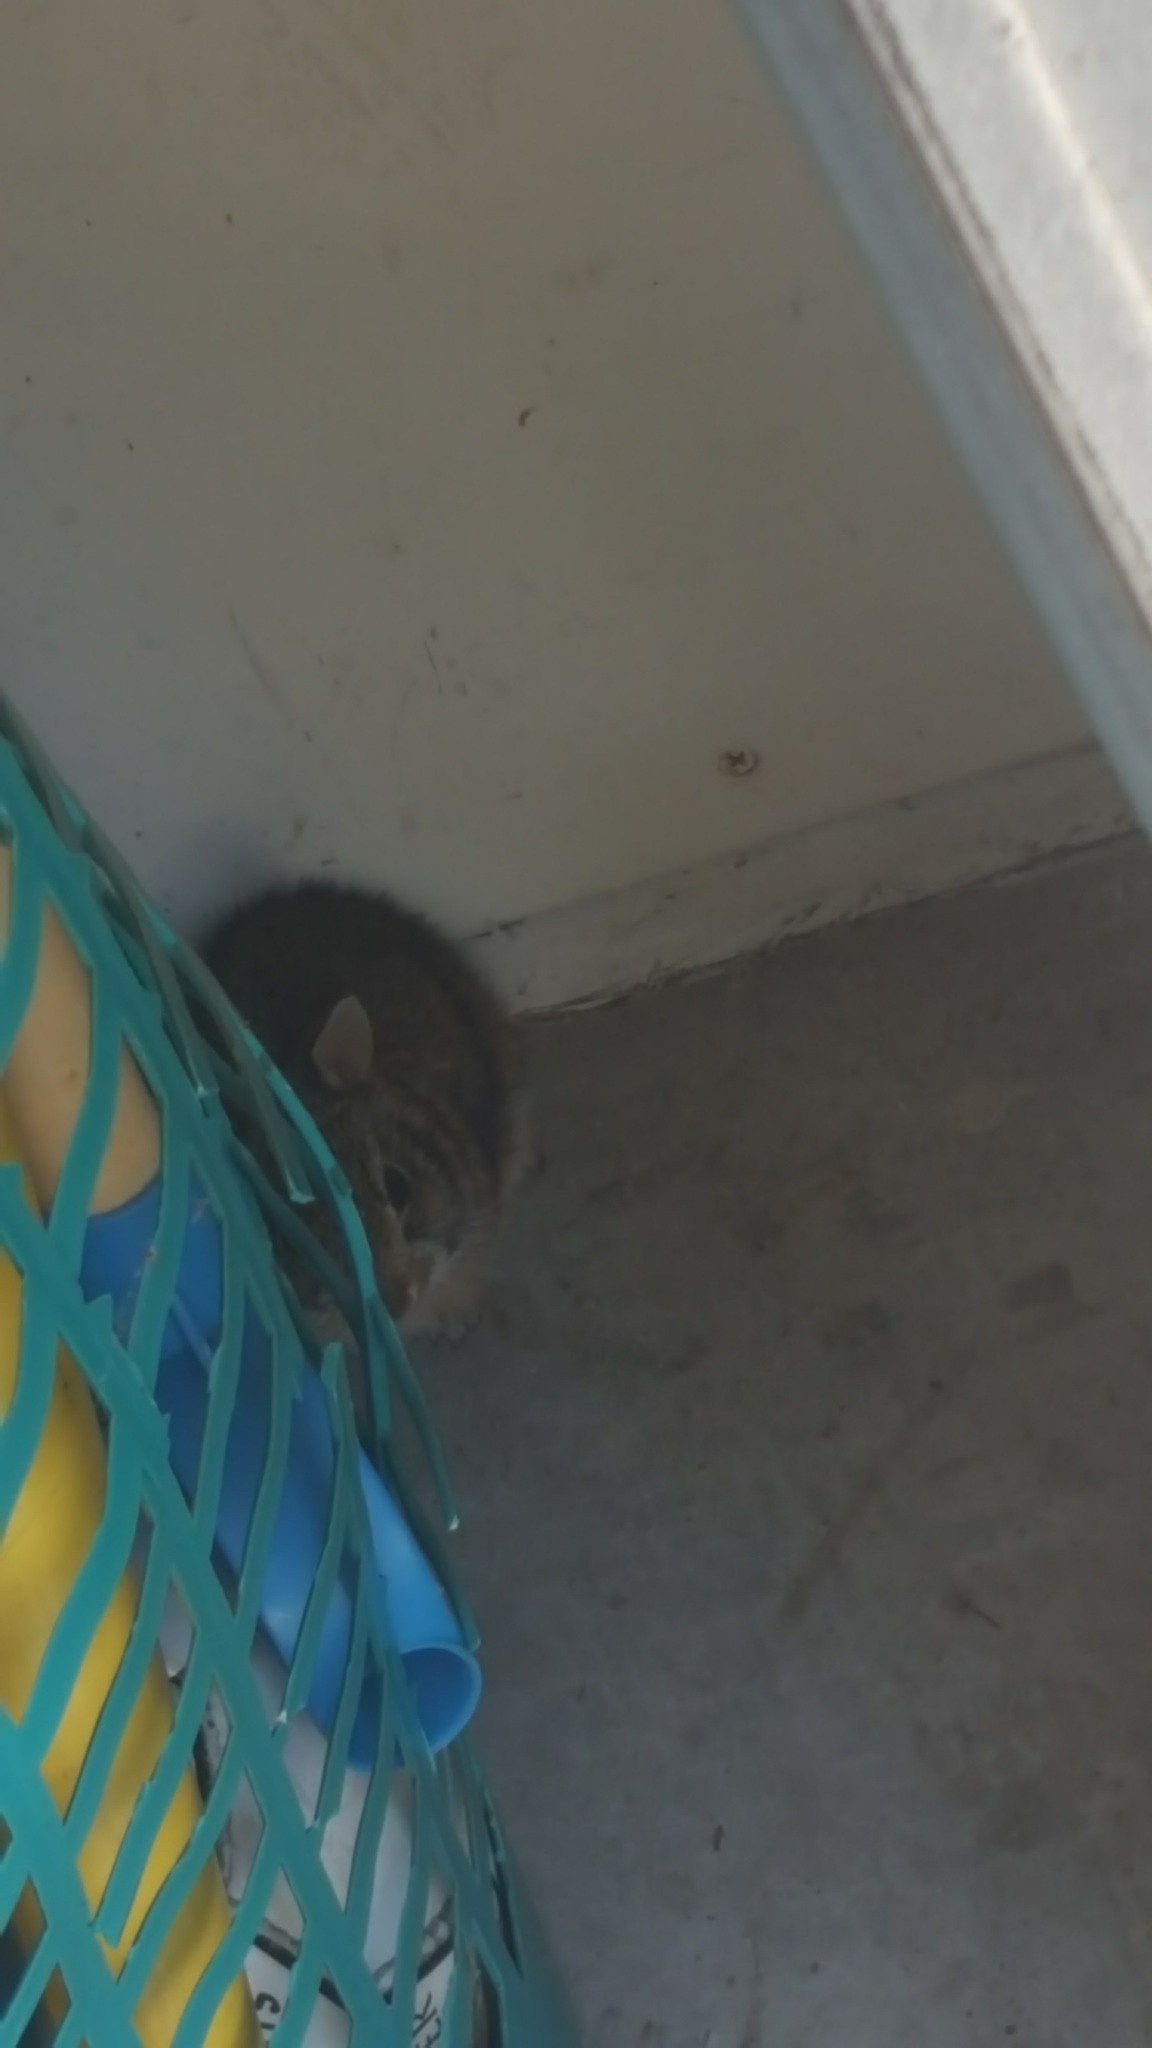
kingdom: Animalia
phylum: Chordata
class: Mammalia
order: Lagomorpha
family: Leporidae
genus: Sylvilagus
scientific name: Sylvilagus floridanus
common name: Eastern cottontail
